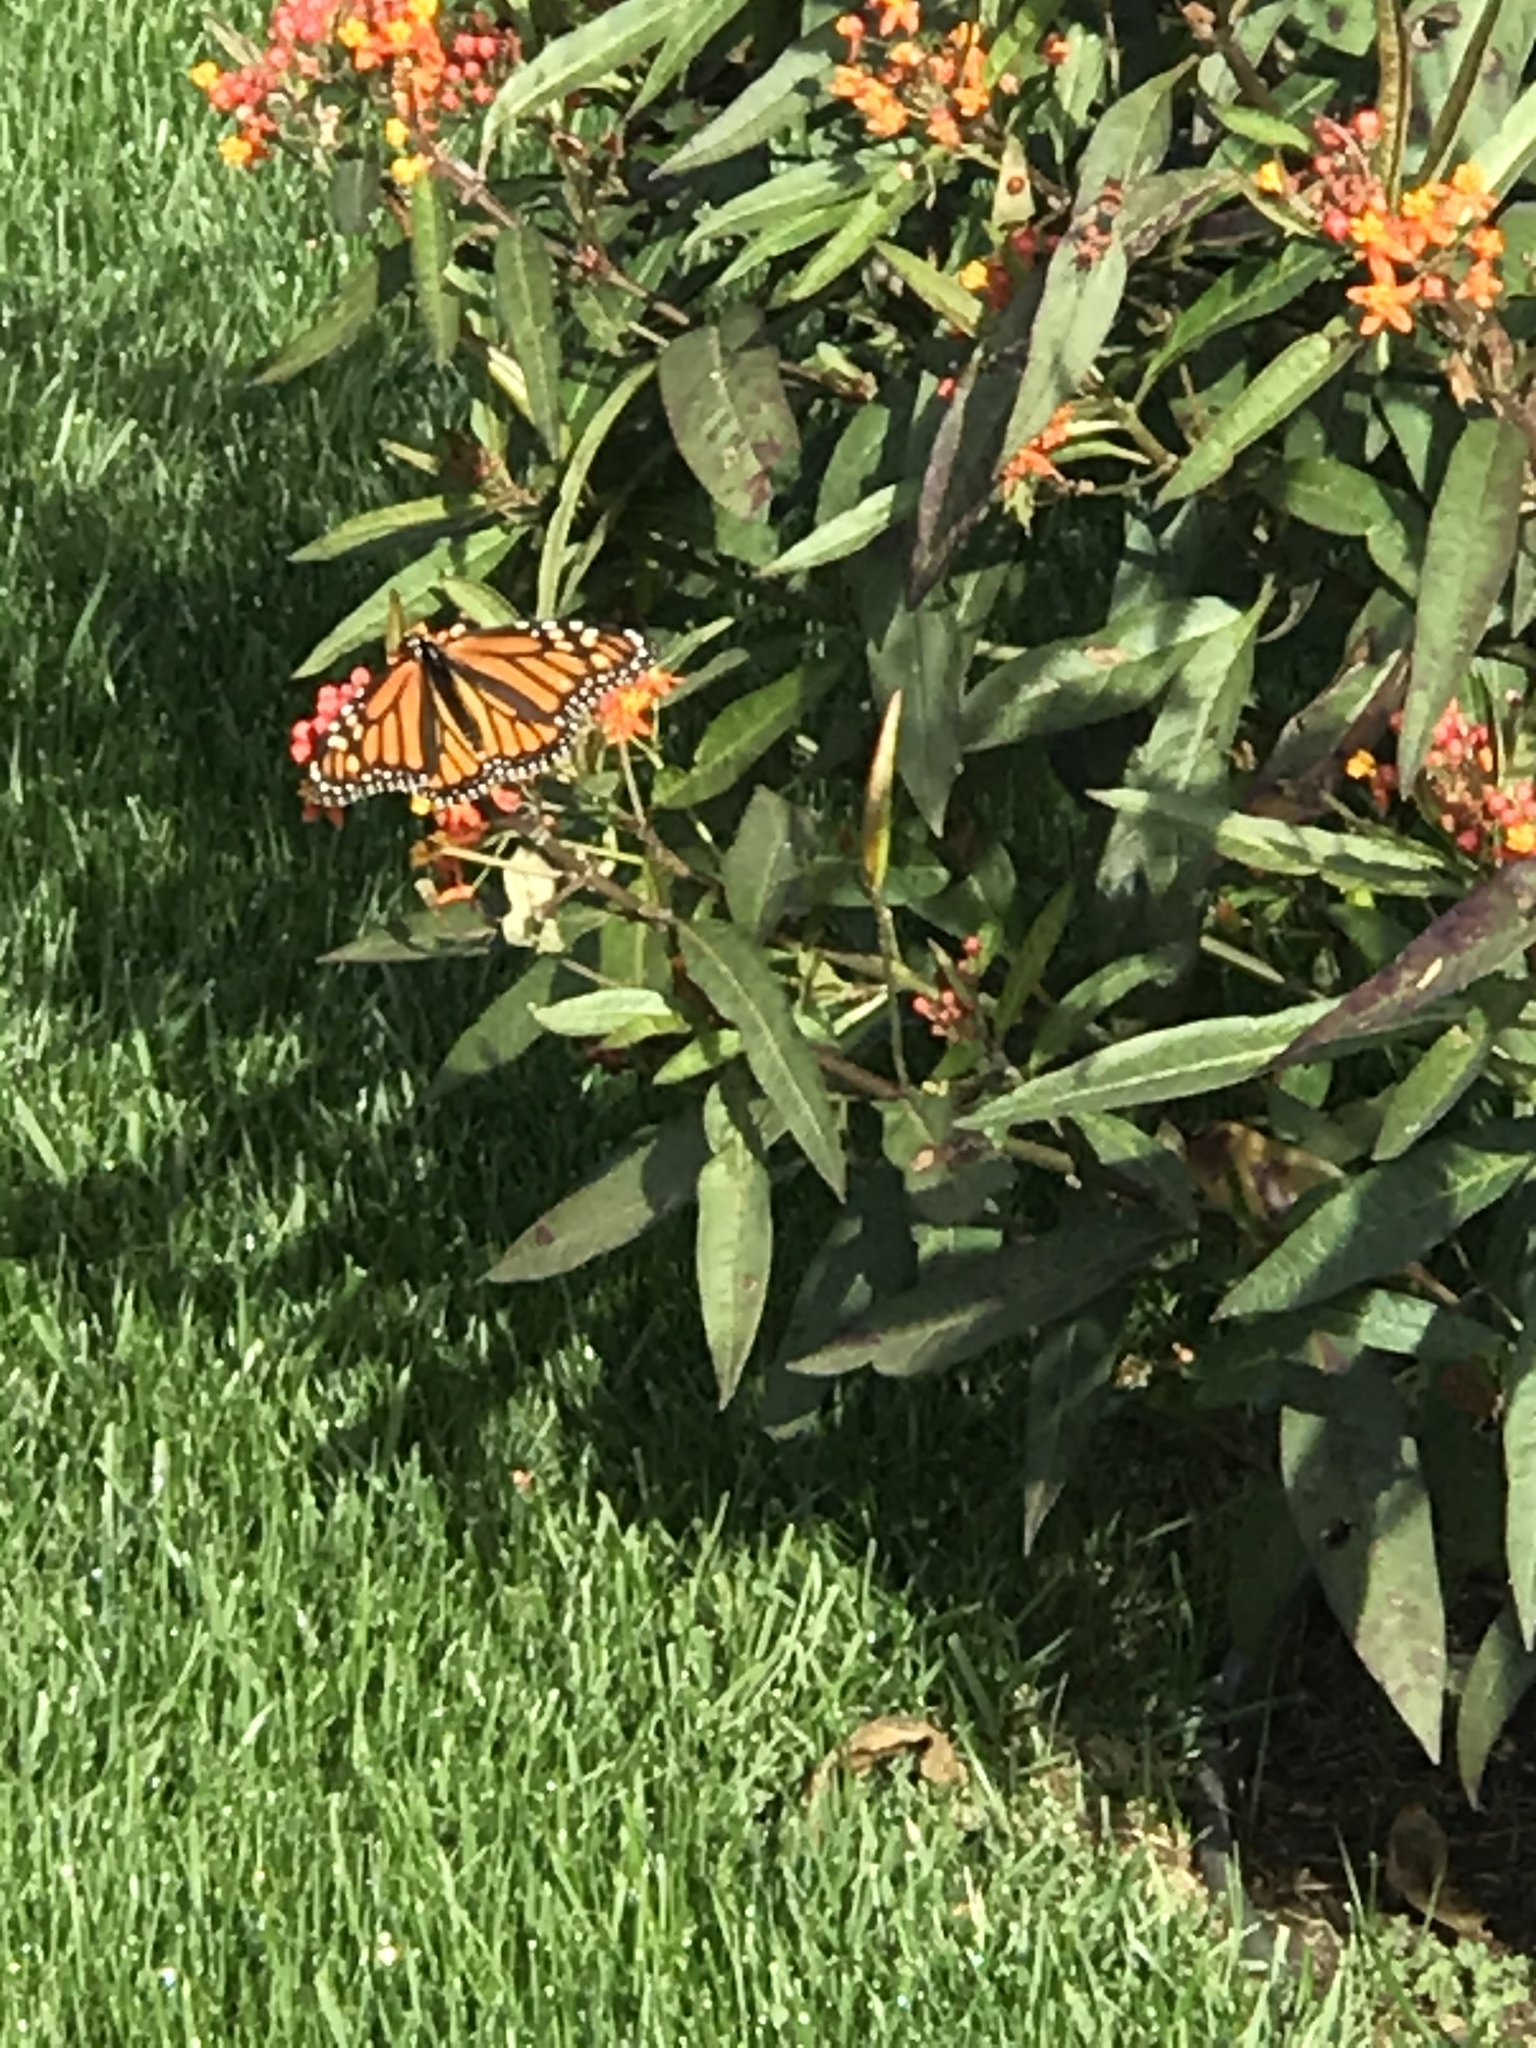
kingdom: Animalia
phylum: Arthropoda
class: Insecta
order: Lepidoptera
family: Nymphalidae
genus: Danaus
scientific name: Danaus plexippus
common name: Monarch
